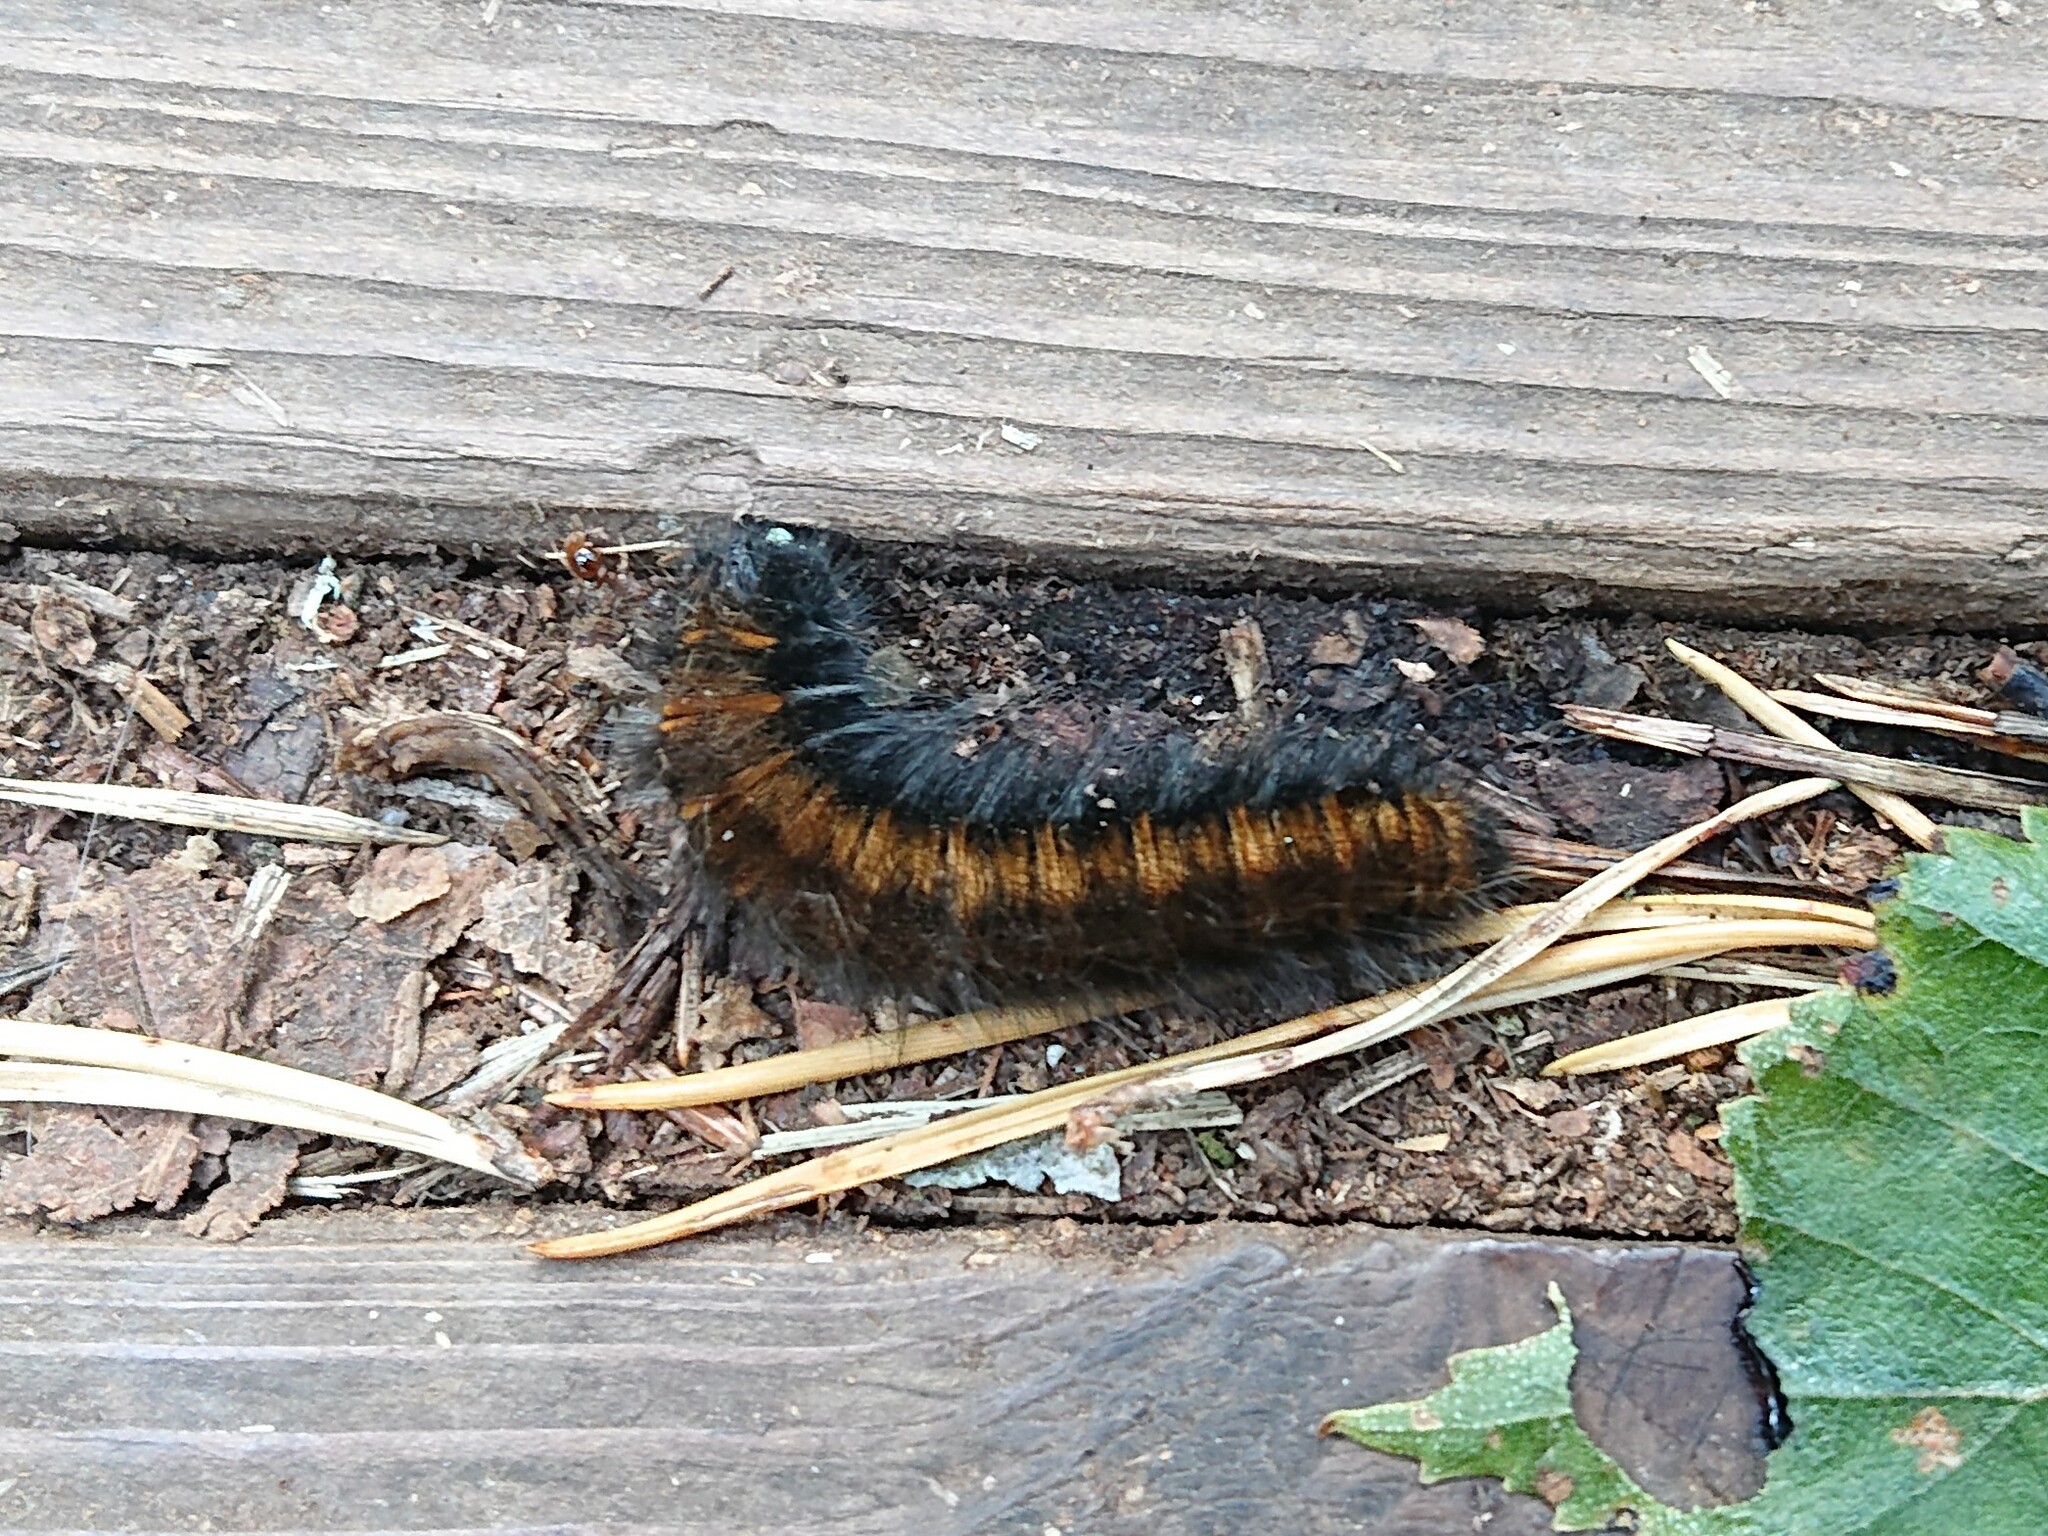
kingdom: Animalia
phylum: Arthropoda
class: Insecta
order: Lepidoptera
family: Lasiocampidae
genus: Macrothylacia
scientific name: Macrothylacia rubi
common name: Fox moth
